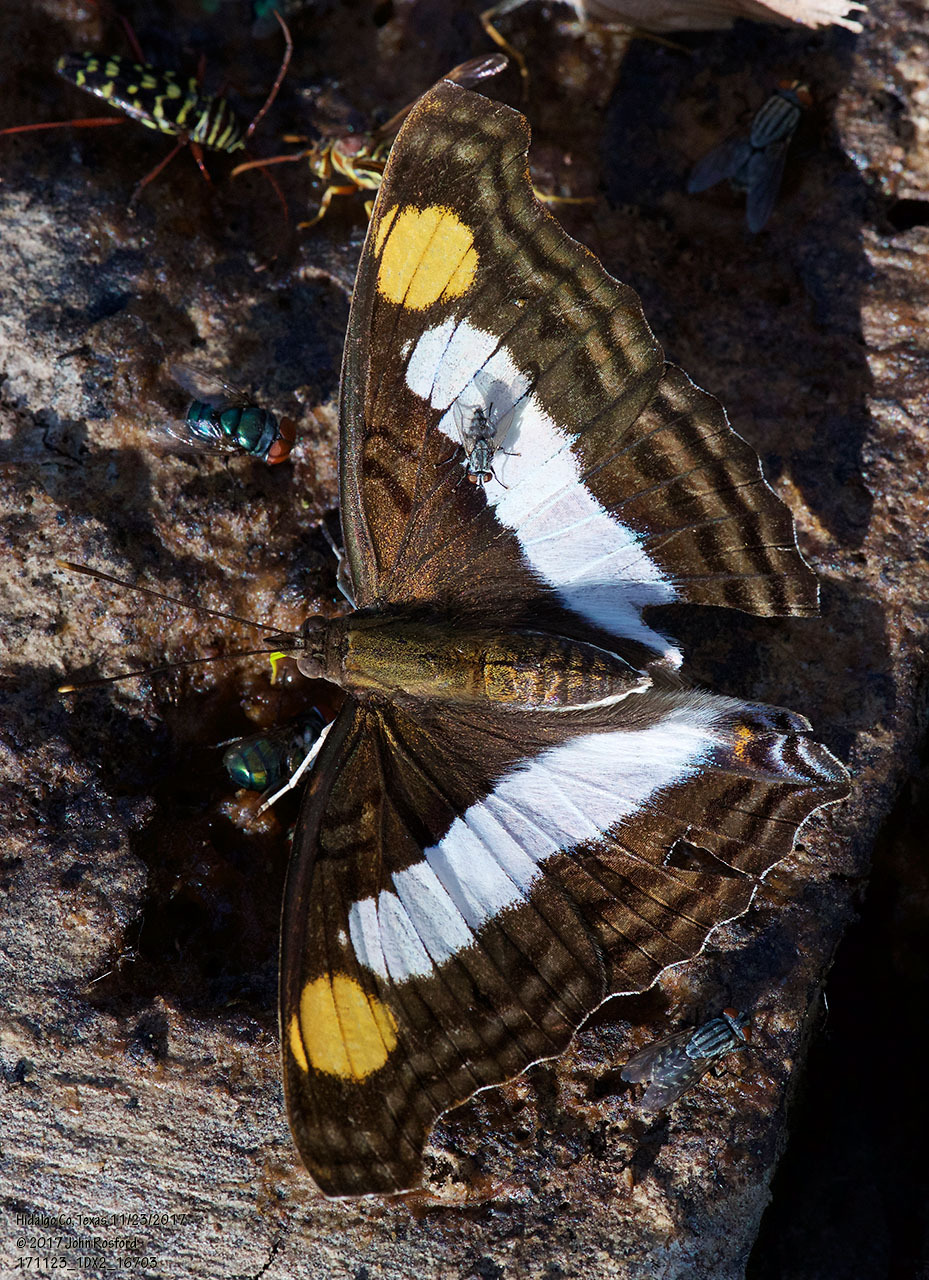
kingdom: Animalia
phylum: Arthropoda
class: Insecta
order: Lepidoptera
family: Nymphalidae
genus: Doxocopa
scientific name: Doxocopa laure
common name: Silver emperor
